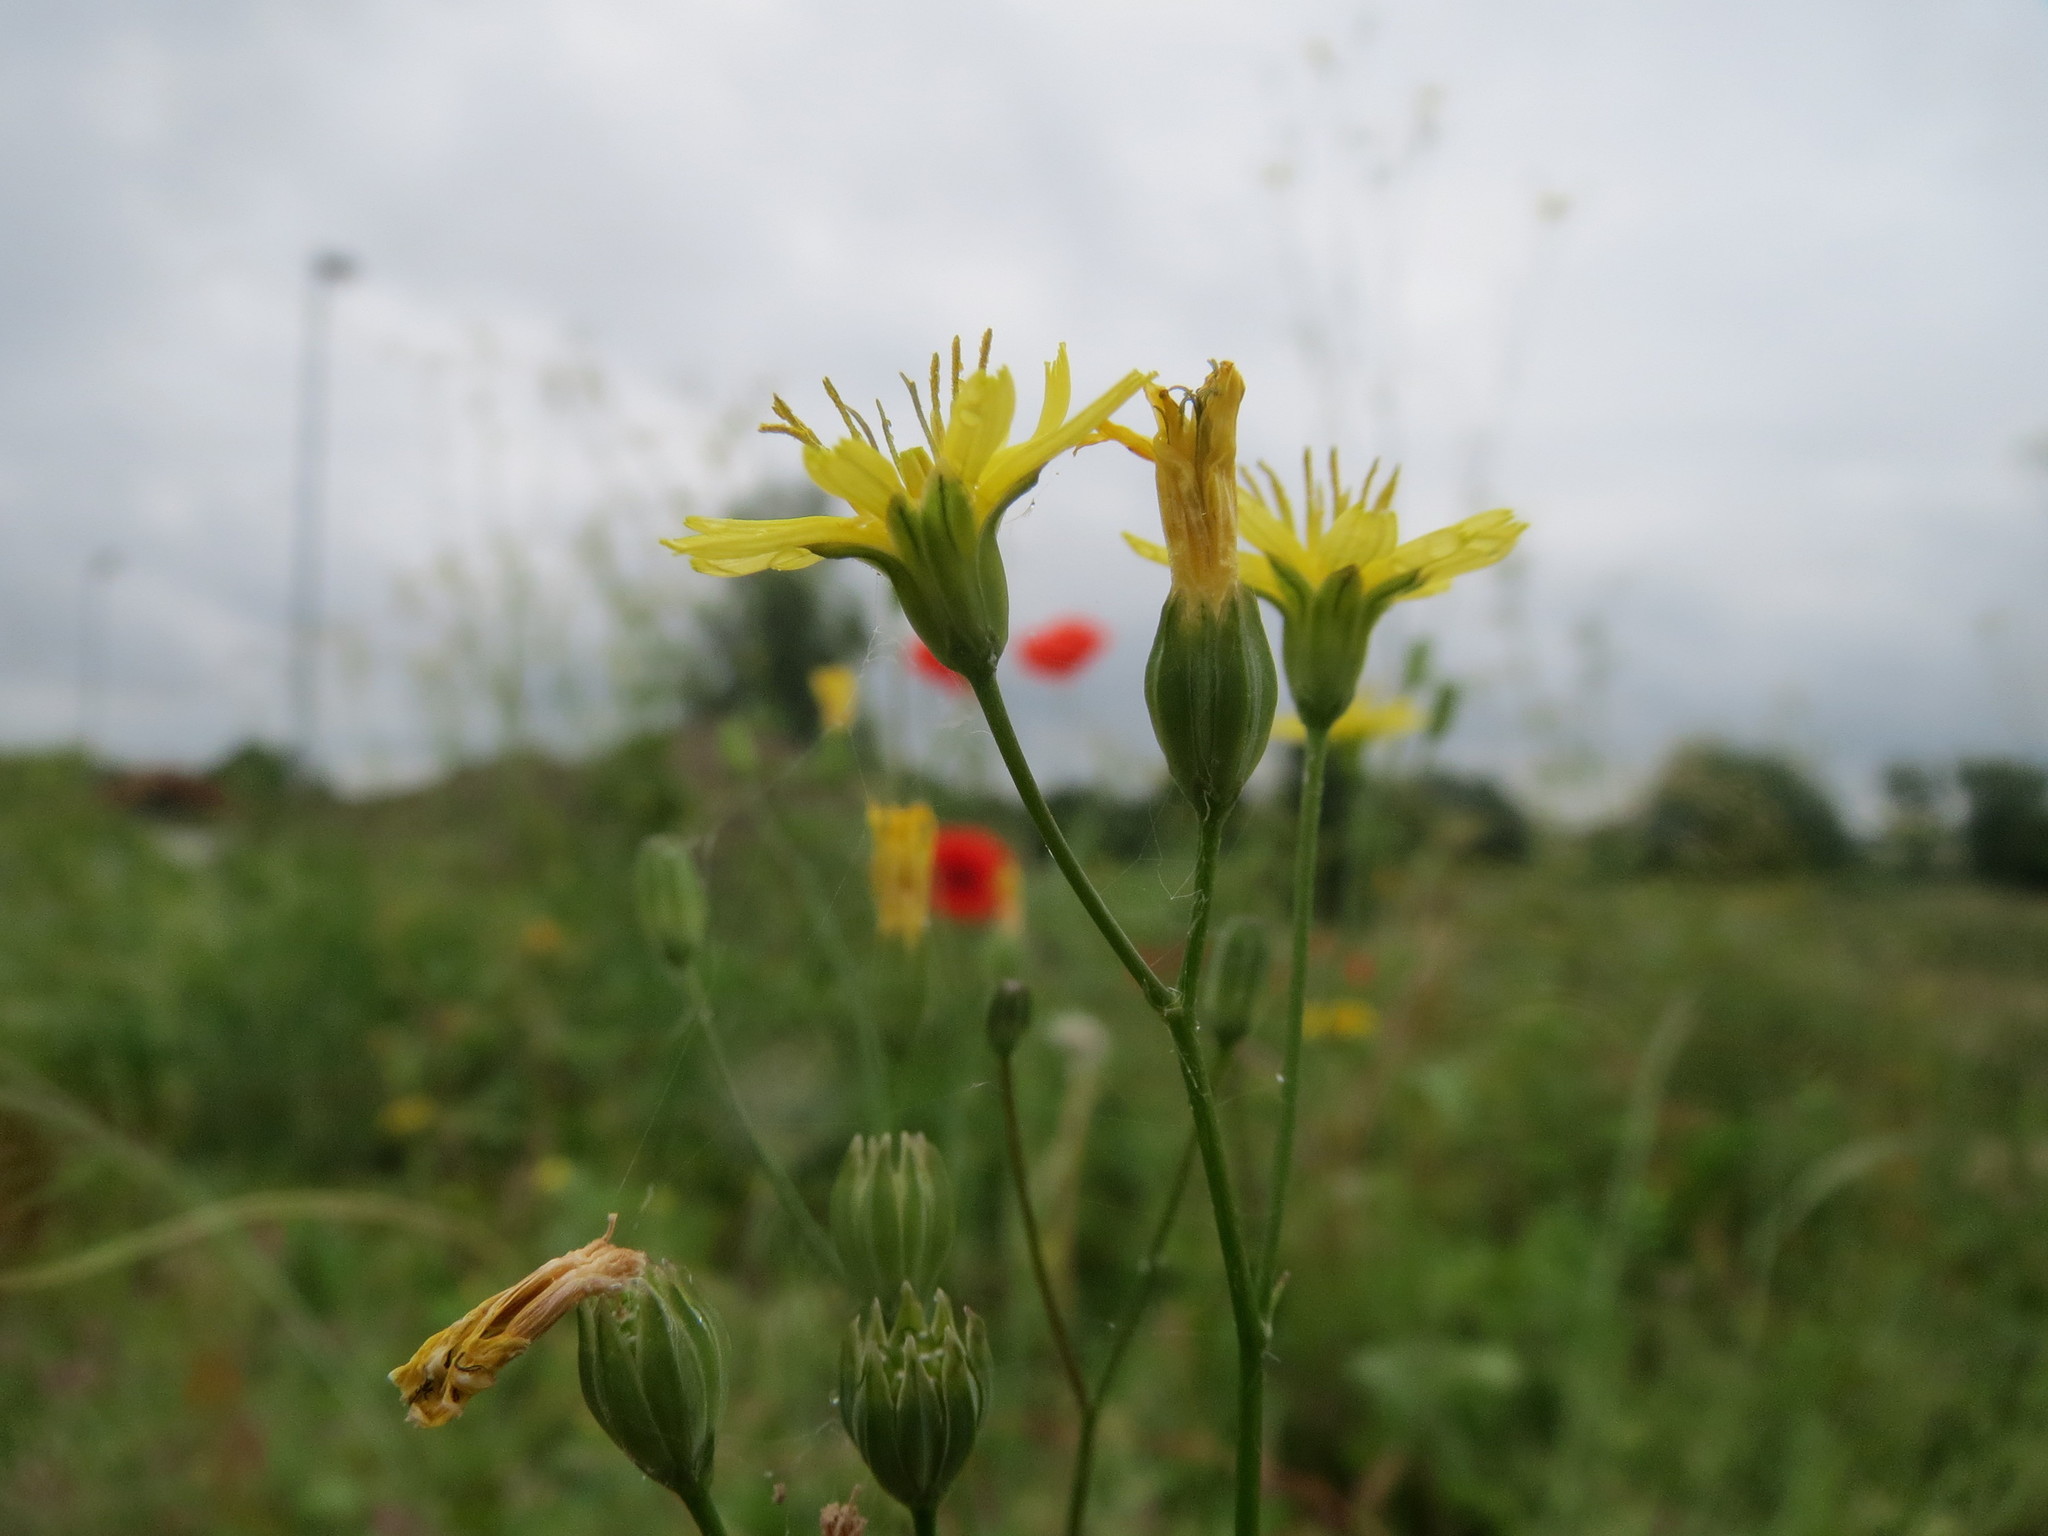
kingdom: Plantae
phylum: Tracheophyta
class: Magnoliopsida
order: Asterales
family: Asteraceae
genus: Lapsana
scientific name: Lapsana communis
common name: Nipplewort
